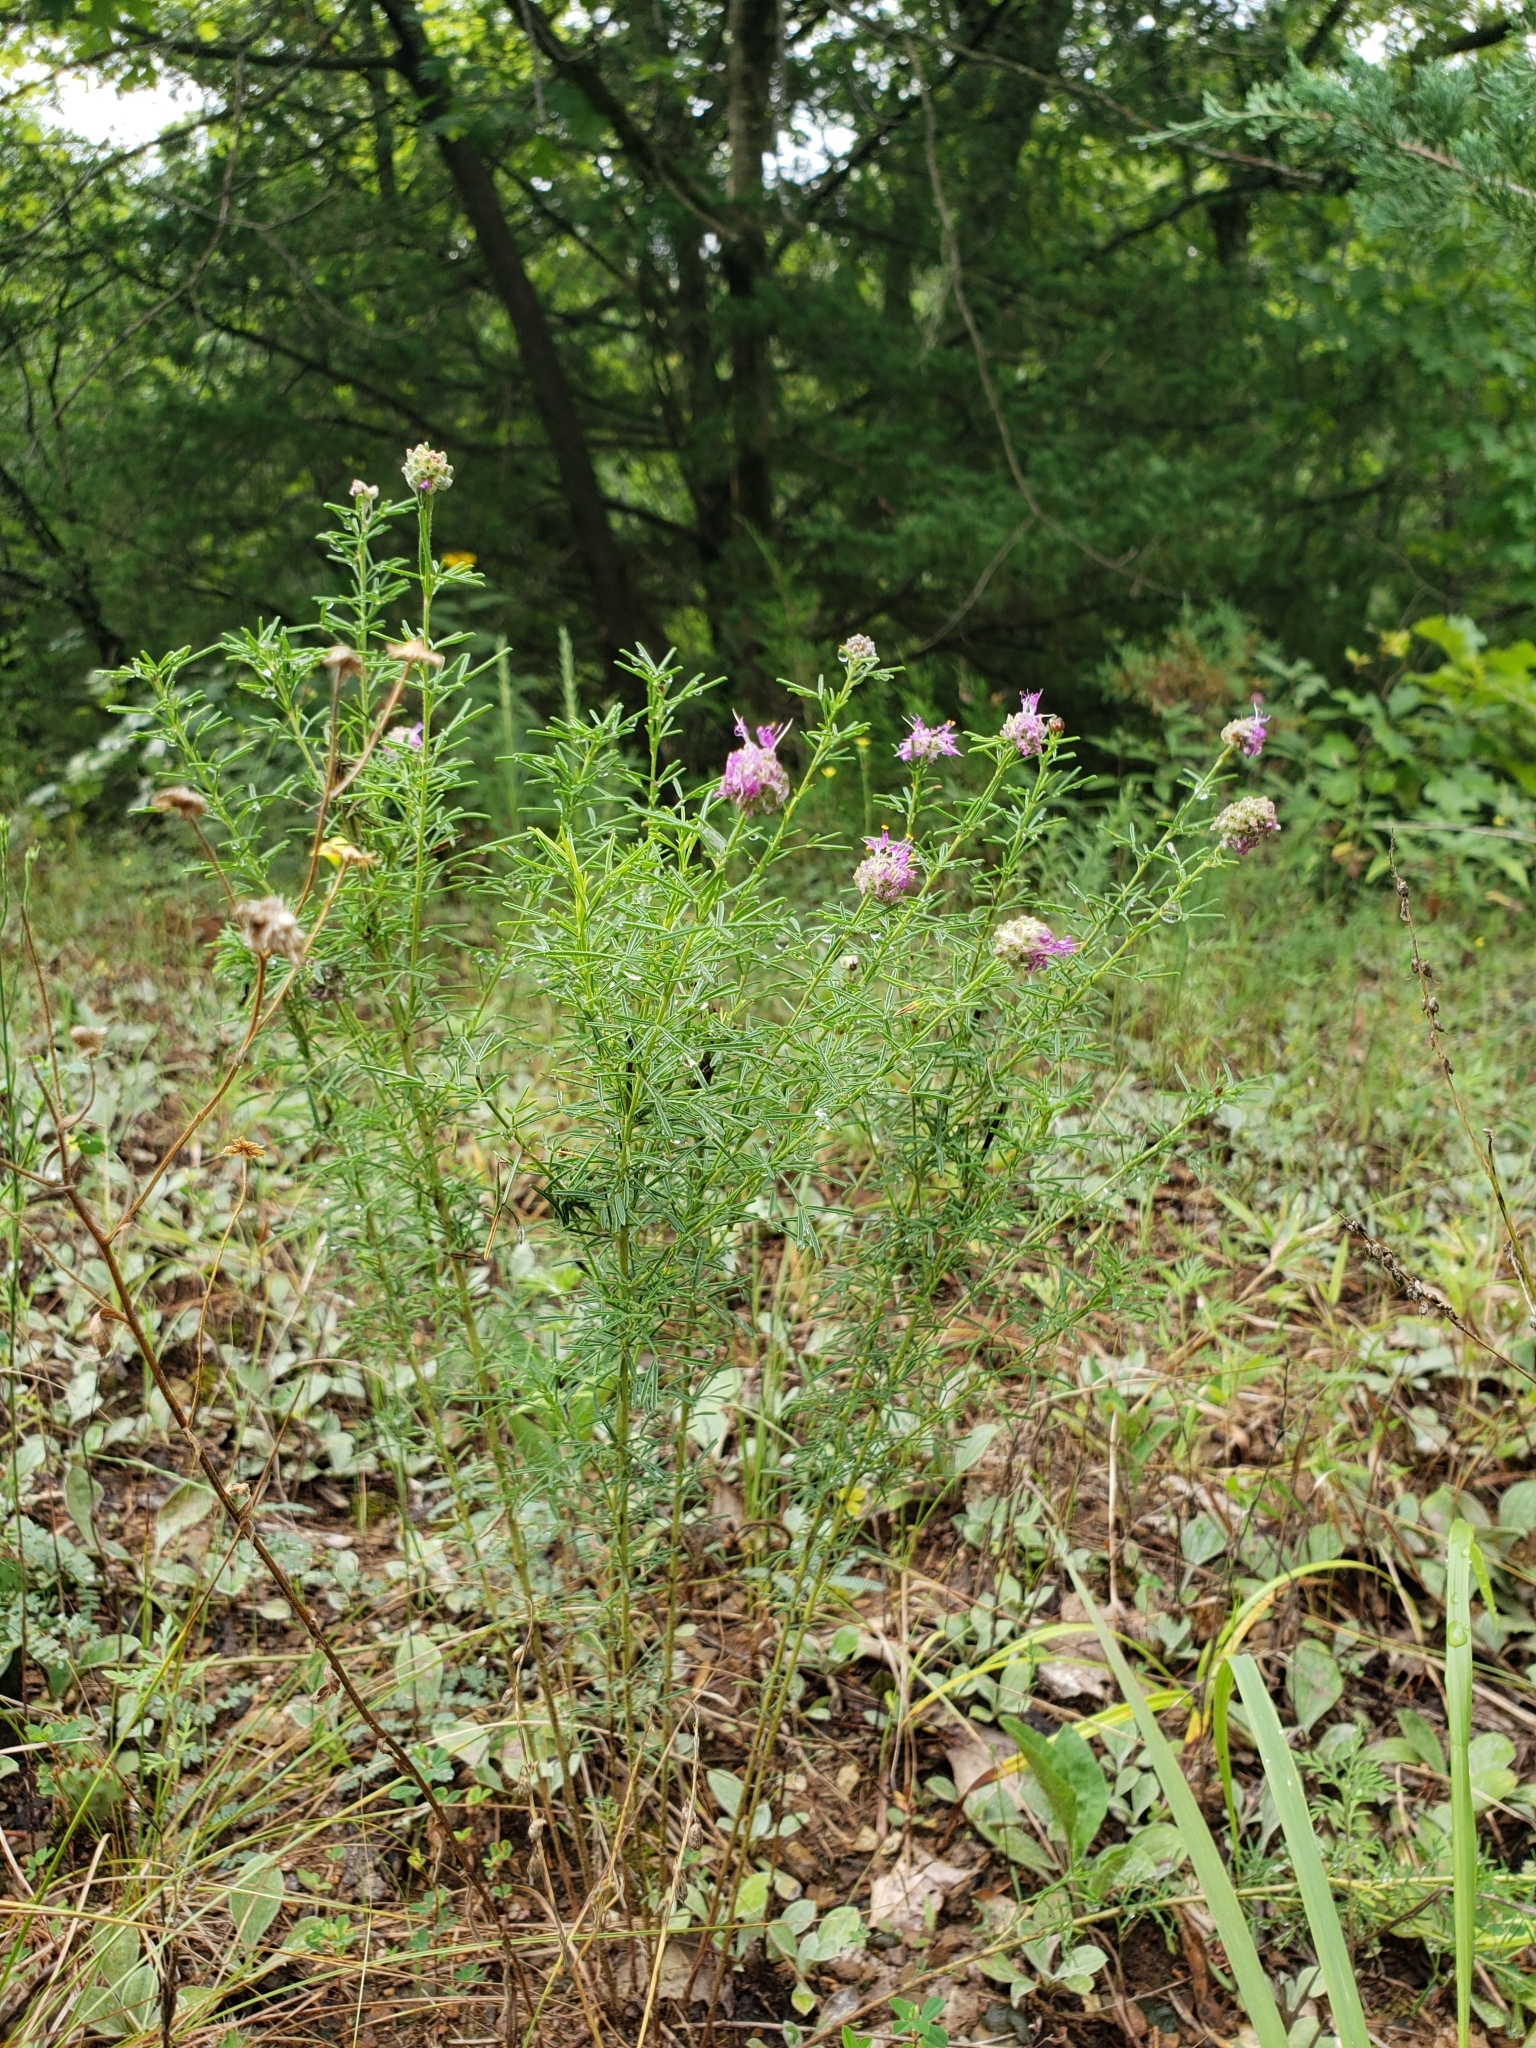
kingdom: Plantae
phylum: Tracheophyta
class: Magnoliopsida
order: Fabales
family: Fabaceae
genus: Dalea
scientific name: Dalea purpurea
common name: Purple prairie-clover
